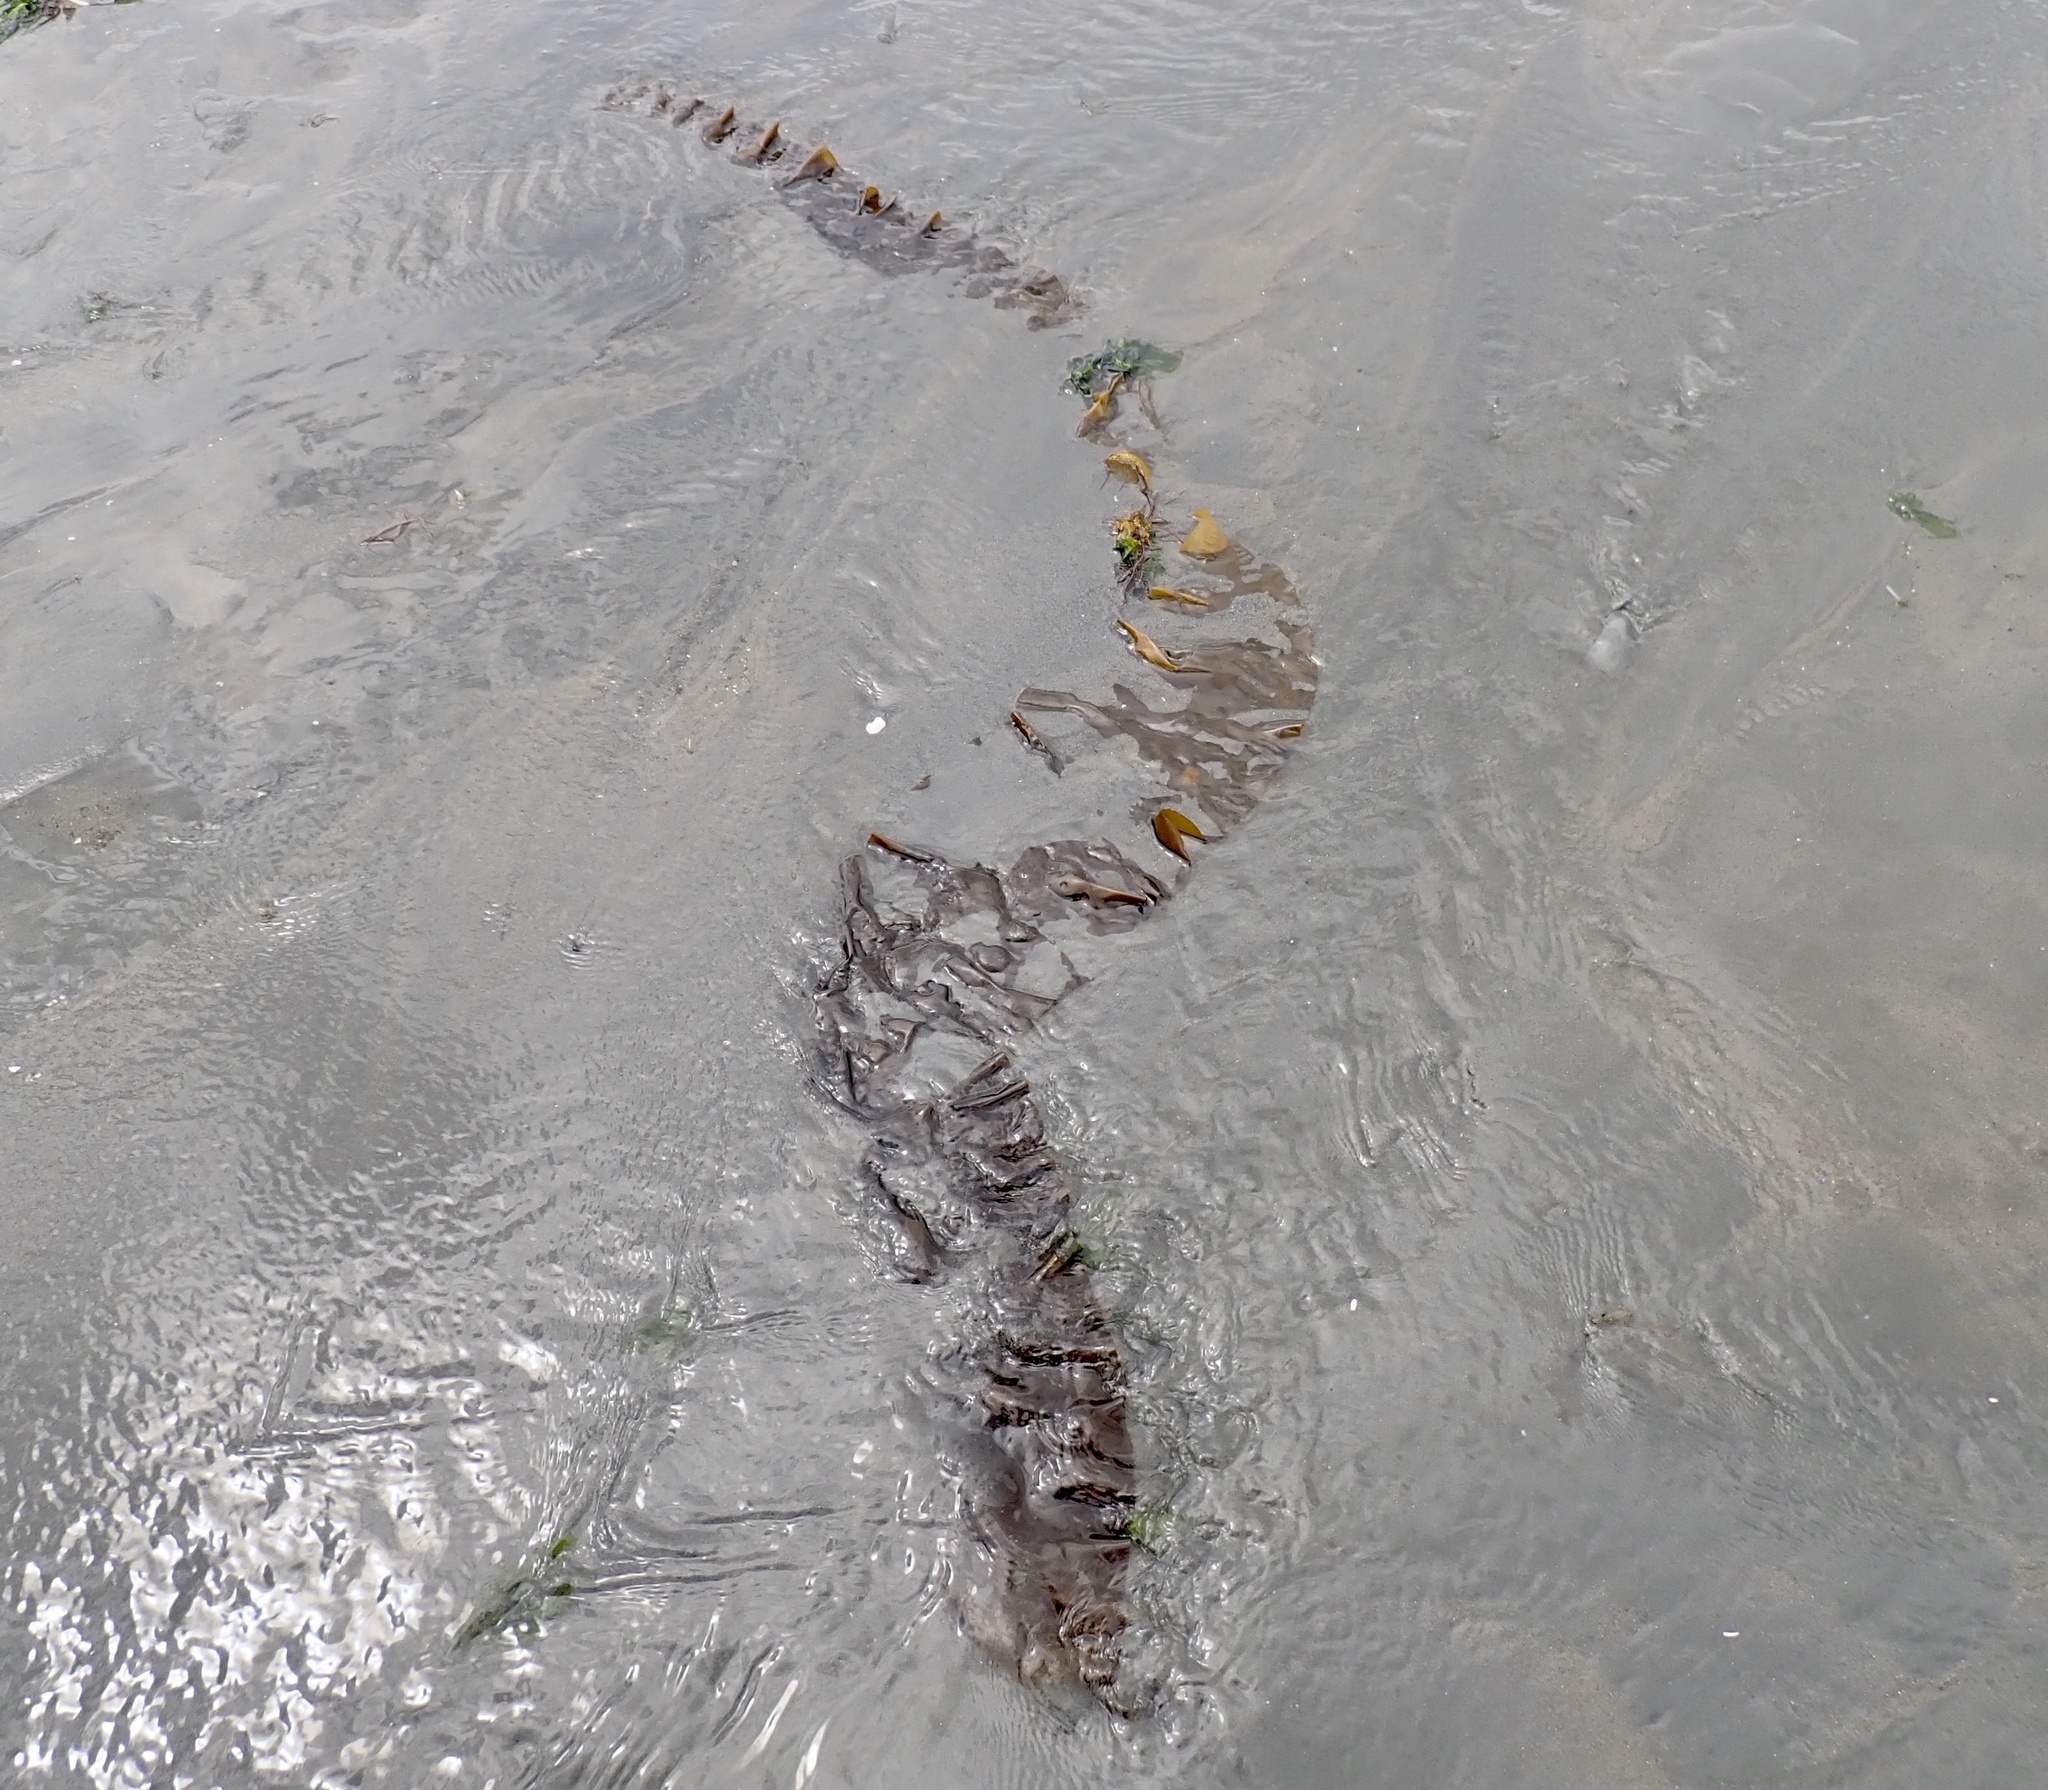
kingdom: Chromista
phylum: Ochrophyta
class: Phaeophyceae
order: Laminariales
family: Laminariaceae
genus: Saccharina
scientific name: Saccharina latissima
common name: Poor man's weather glass
